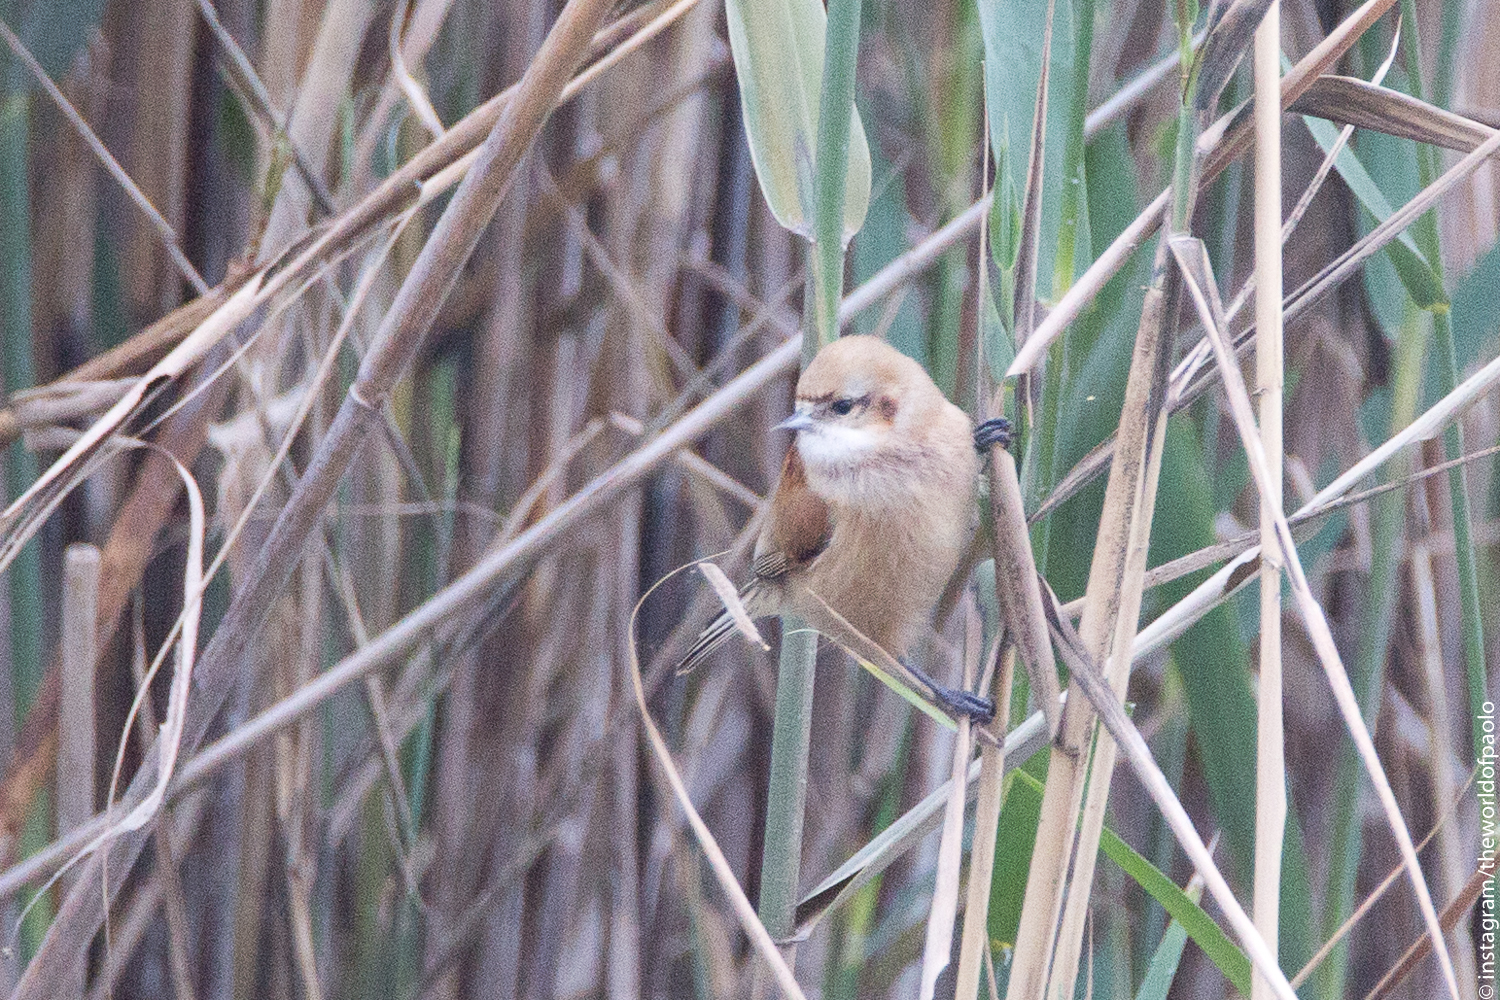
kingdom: Animalia
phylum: Chordata
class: Aves
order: Passeriformes
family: Remizidae
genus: Remiz
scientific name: Remiz pendulinus
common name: Eurasian penduline tit
